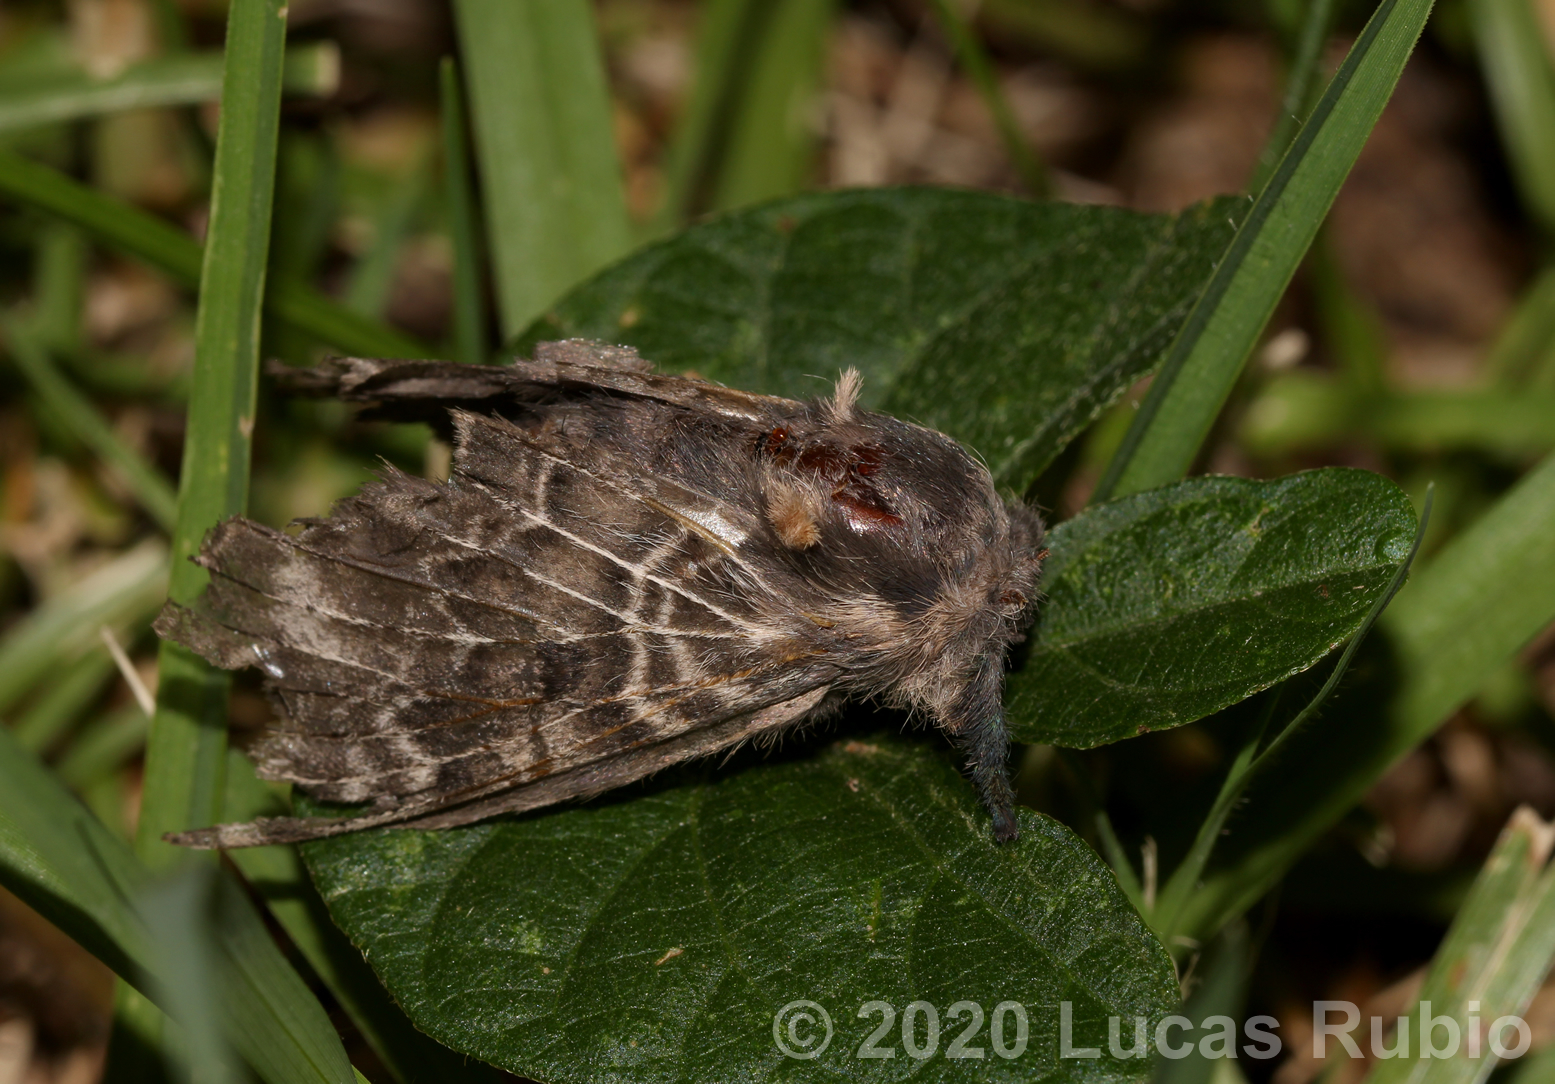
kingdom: Animalia
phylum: Arthropoda
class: Insecta
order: Lepidoptera
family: Lasiocampidae
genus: Labedera
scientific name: Labedera
